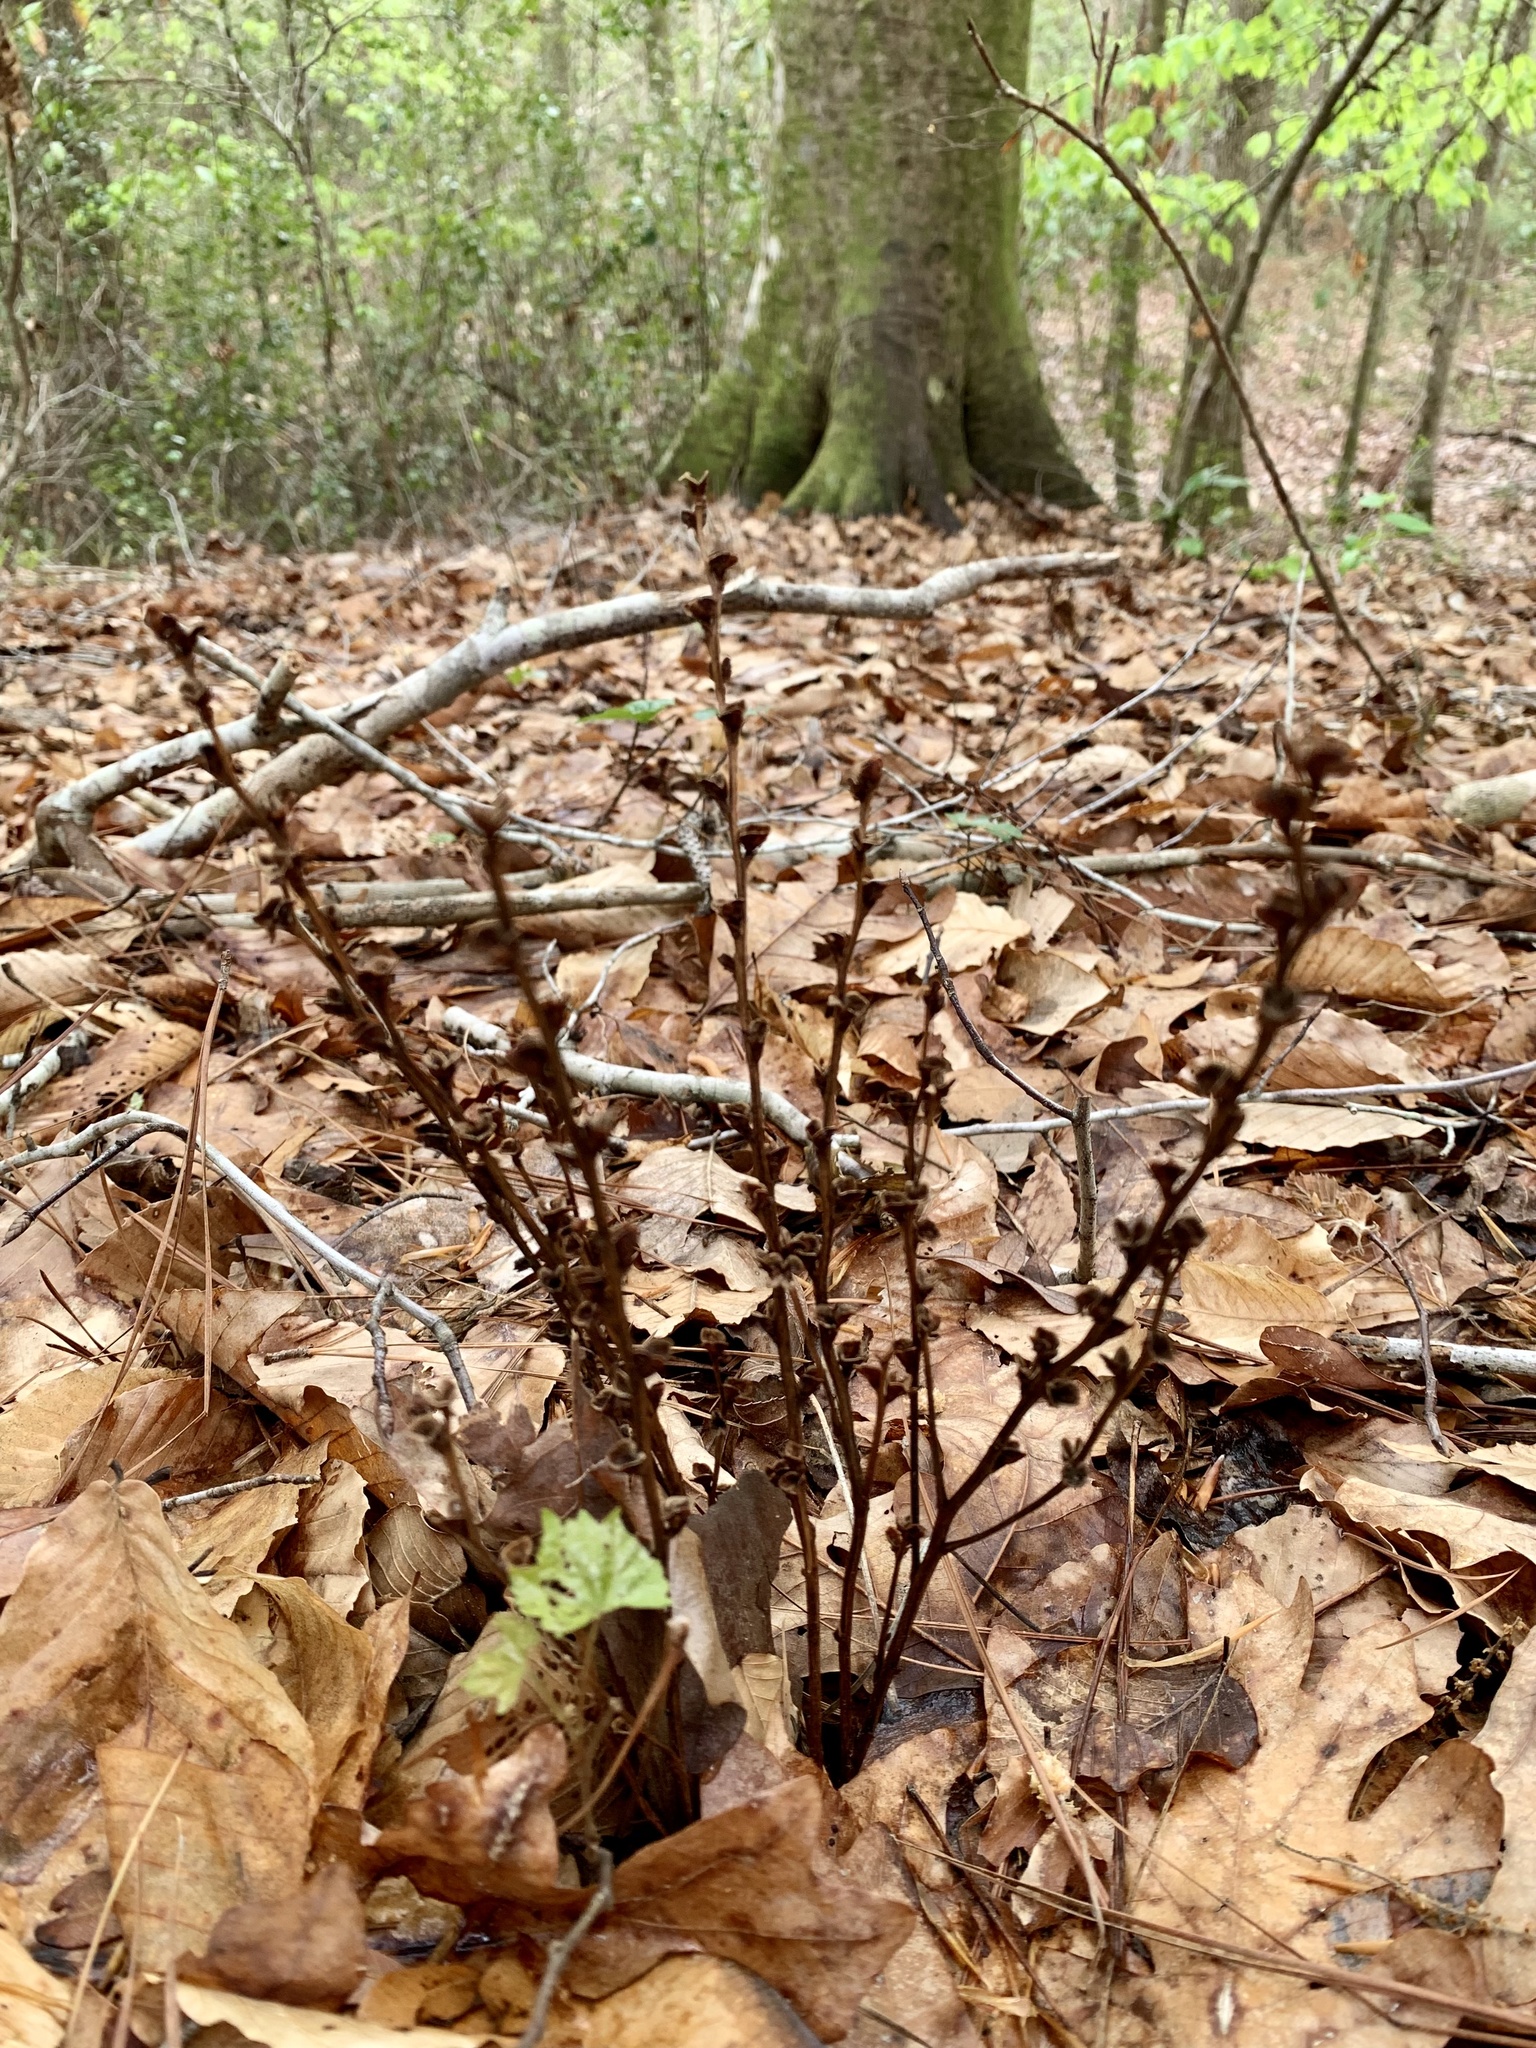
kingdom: Plantae
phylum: Tracheophyta
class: Magnoliopsida
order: Lamiales
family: Orobanchaceae
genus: Epifagus
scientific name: Epifagus virginiana
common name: Beechdrops
